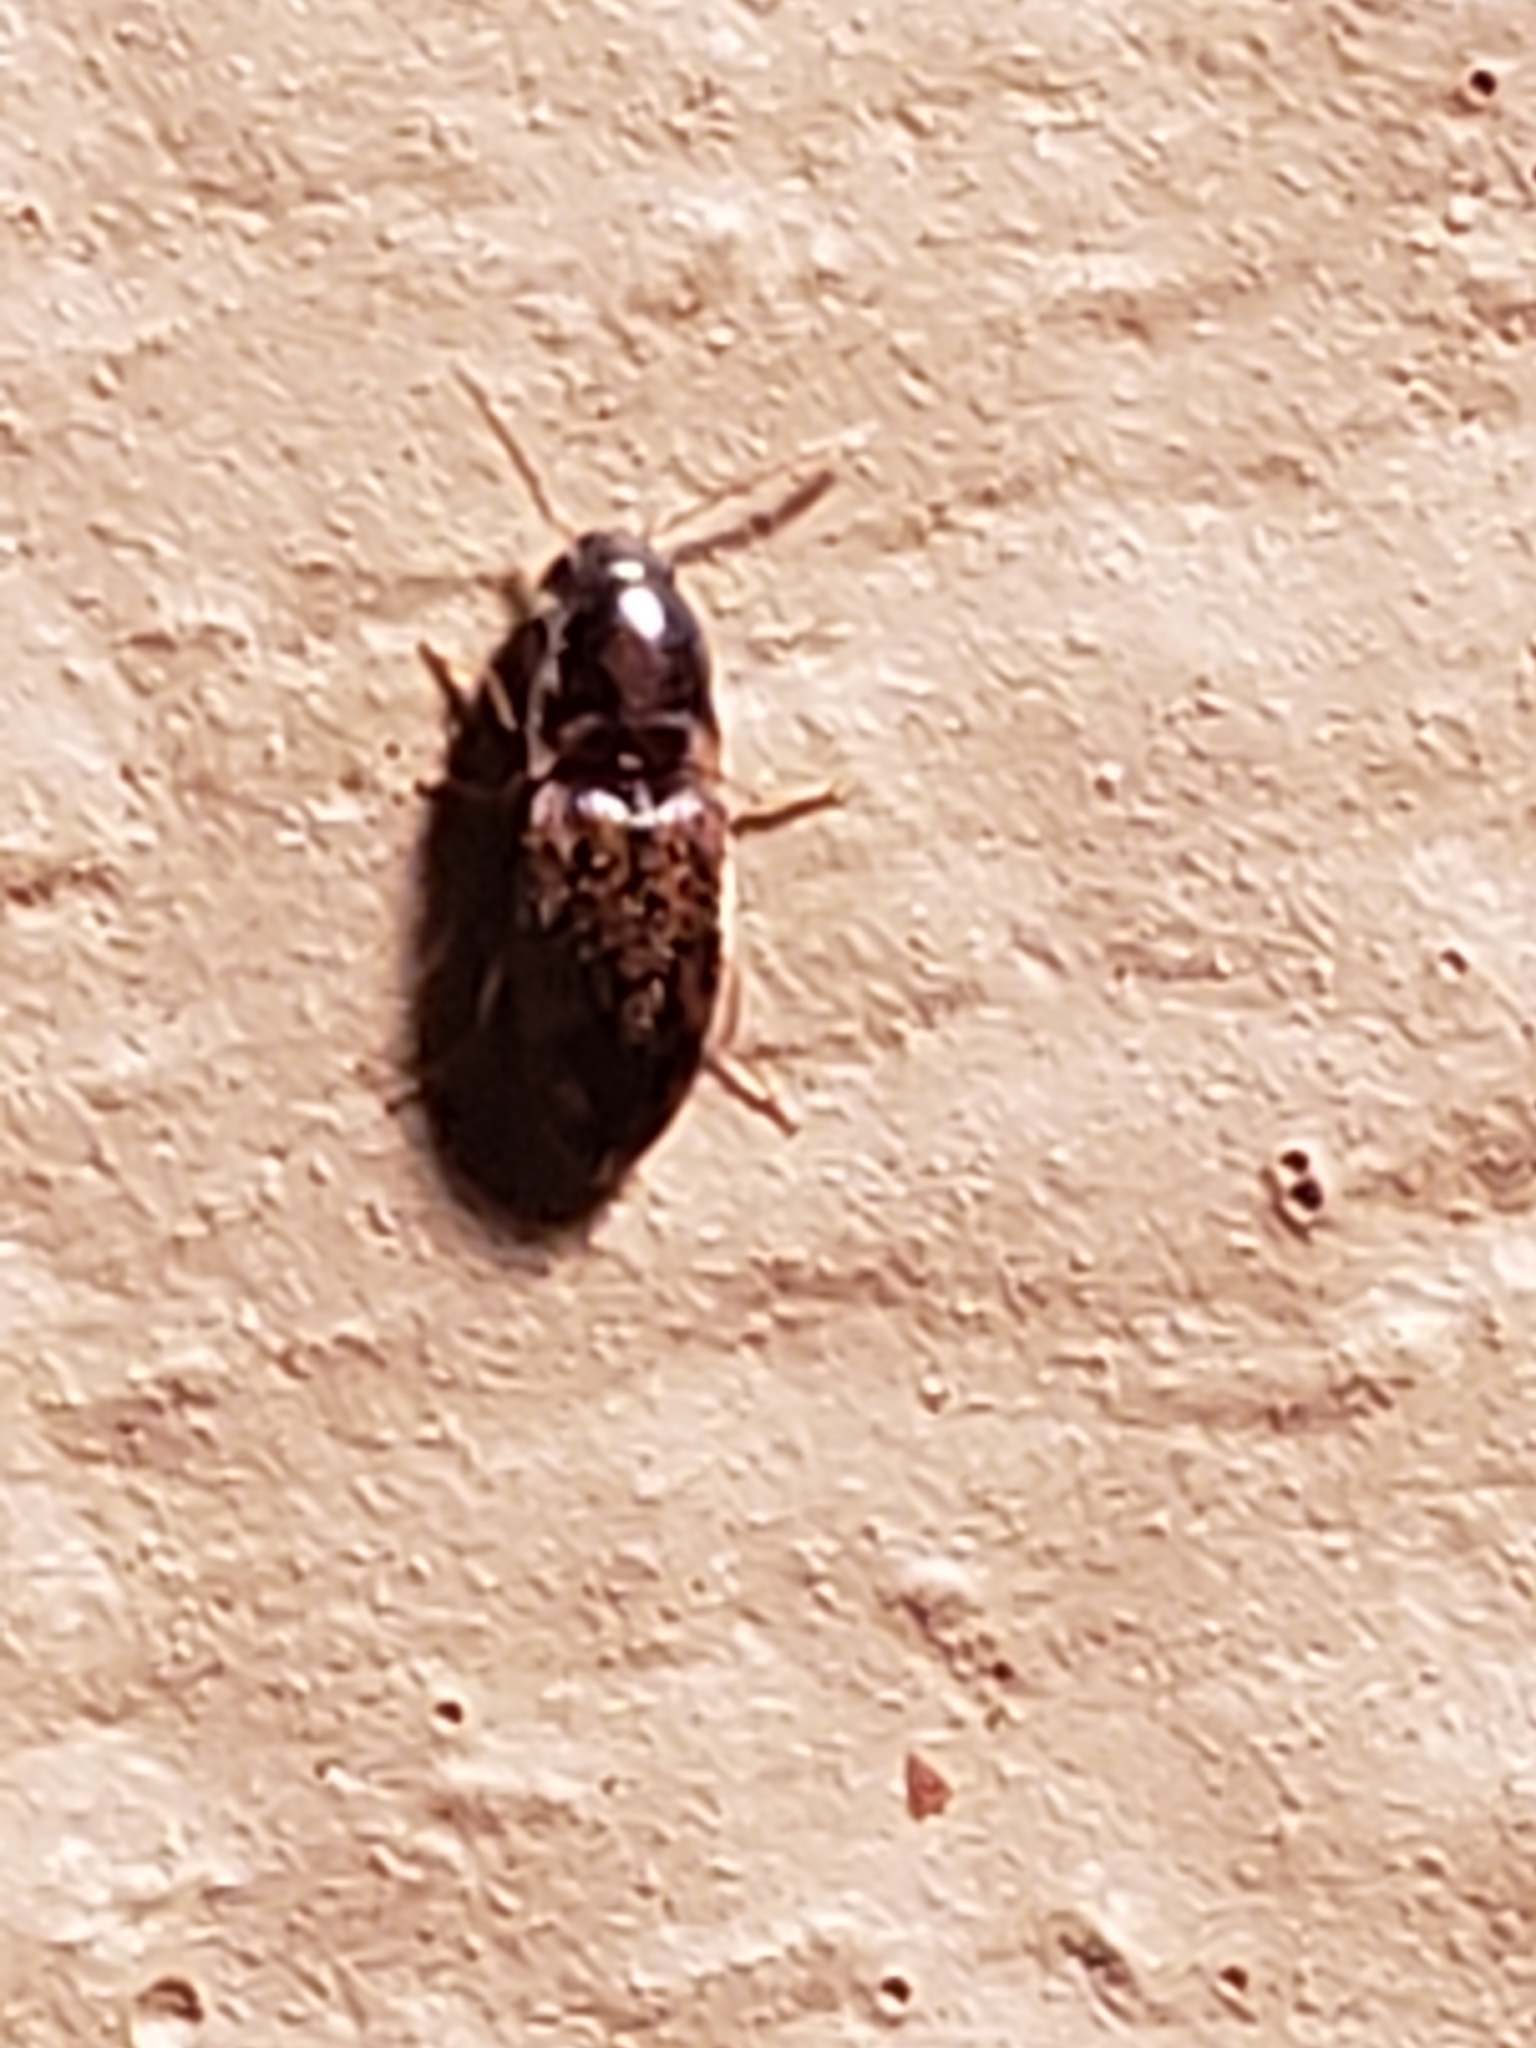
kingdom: Animalia
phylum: Arthropoda
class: Insecta
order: Coleoptera
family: Elateridae
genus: Monocrepidius
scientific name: Monocrepidius bellus
